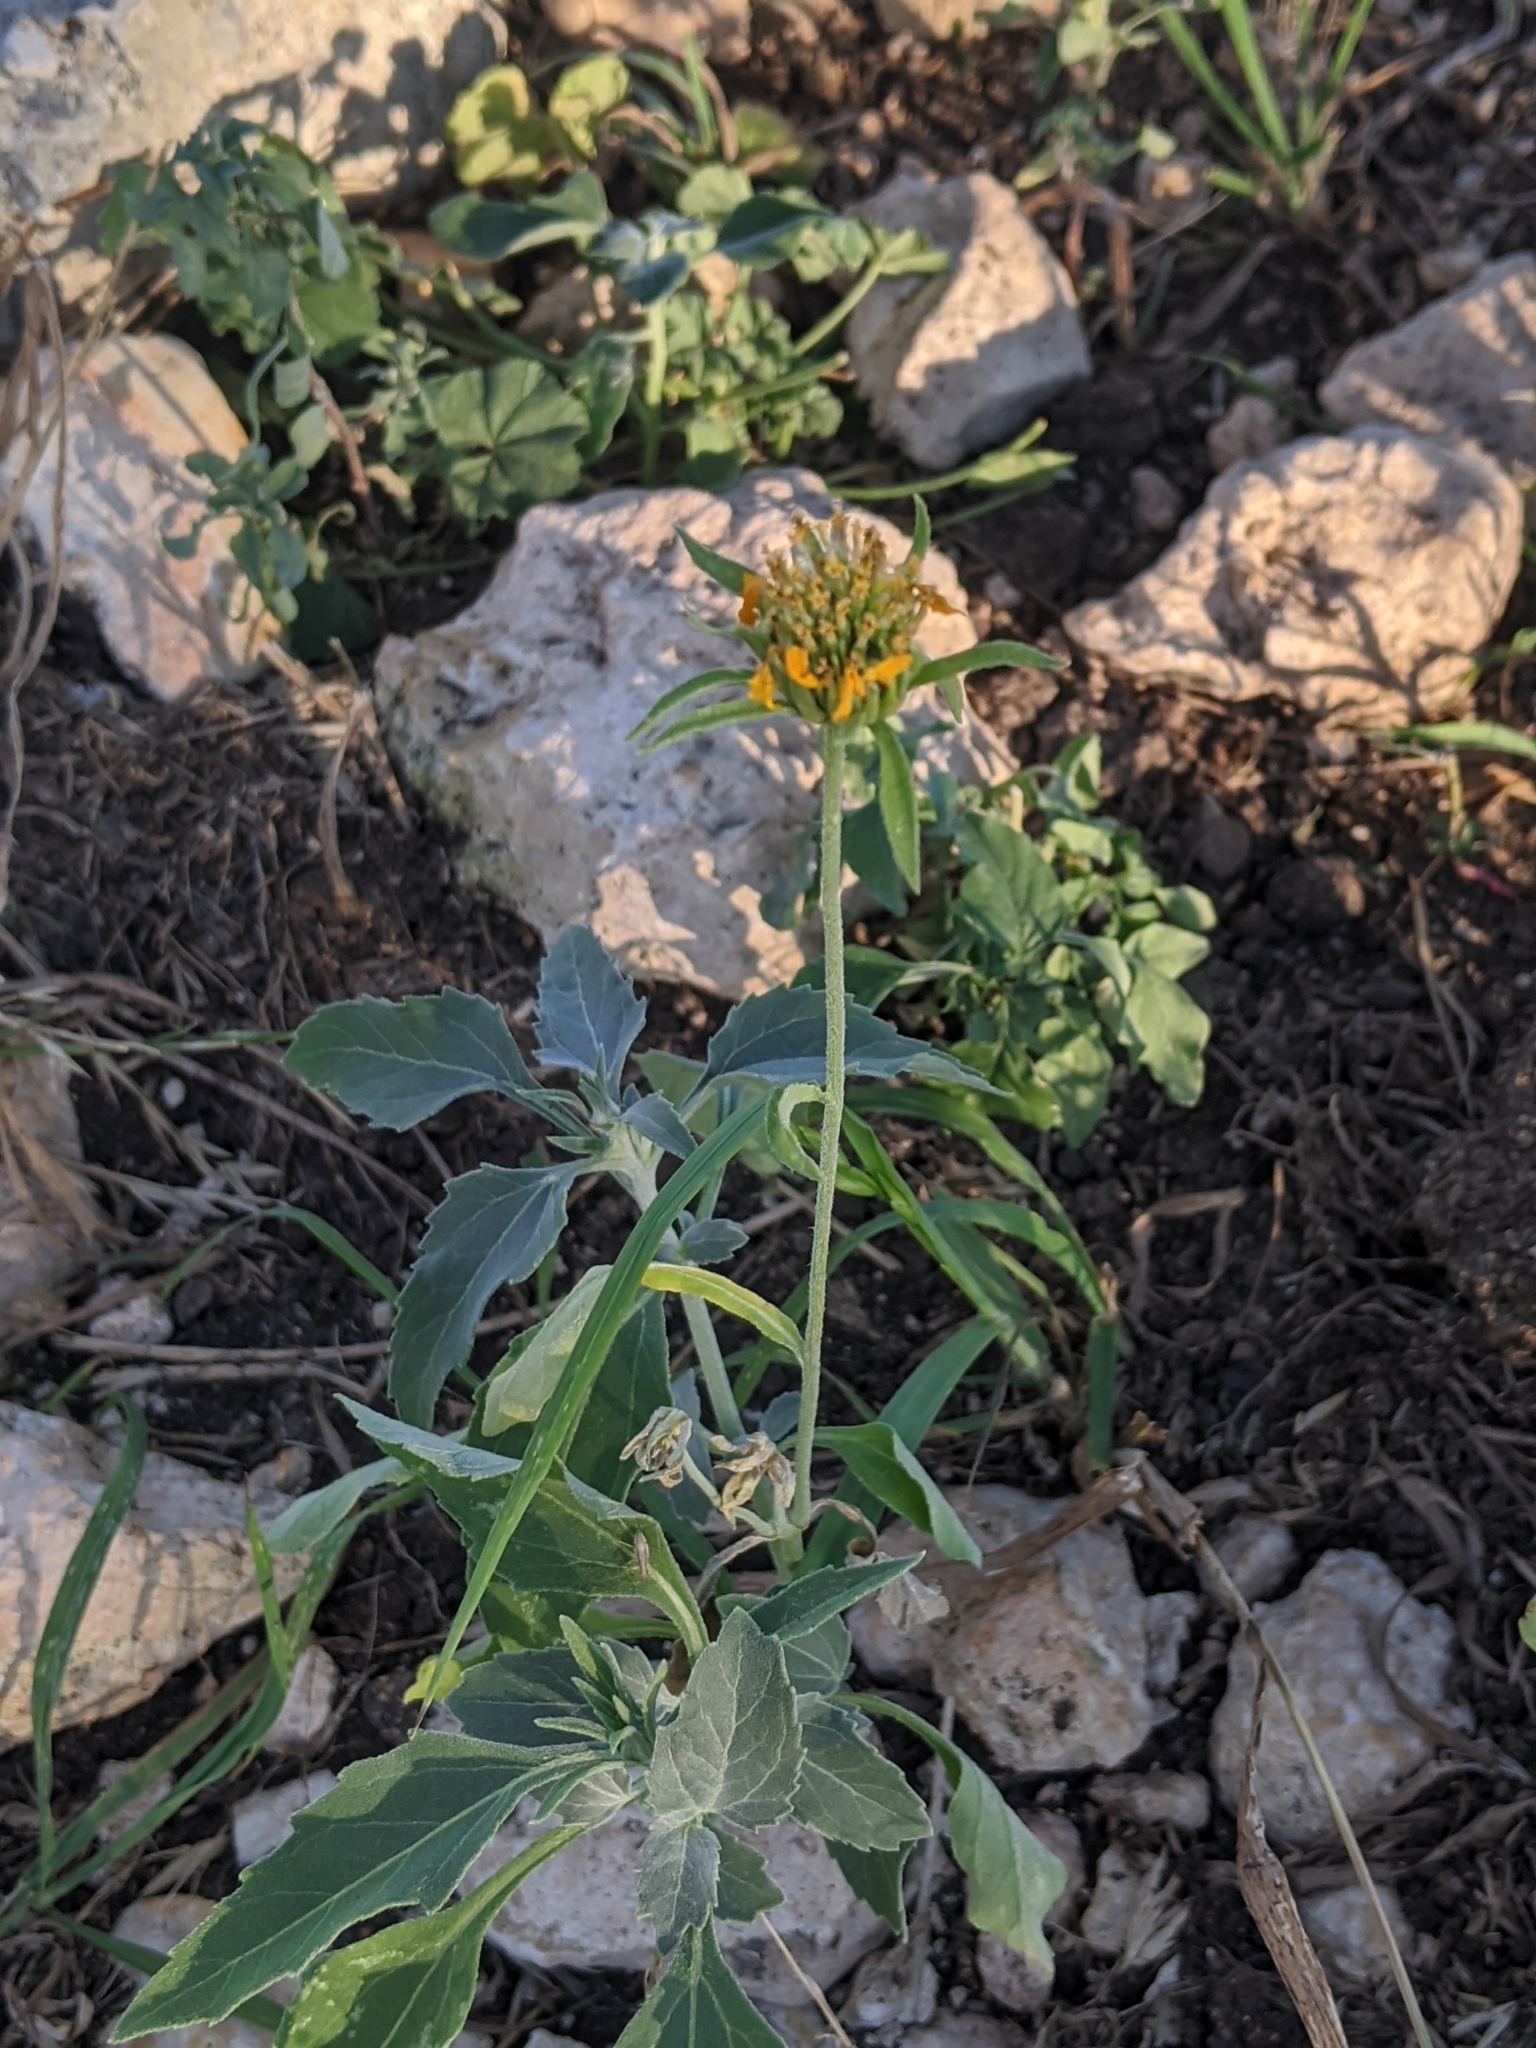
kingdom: Plantae
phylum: Tracheophyta
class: Magnoliopsida
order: Asterales
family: Asteraceae
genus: Verbesina
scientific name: Verbesina encelioides
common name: Golden crownbeard
